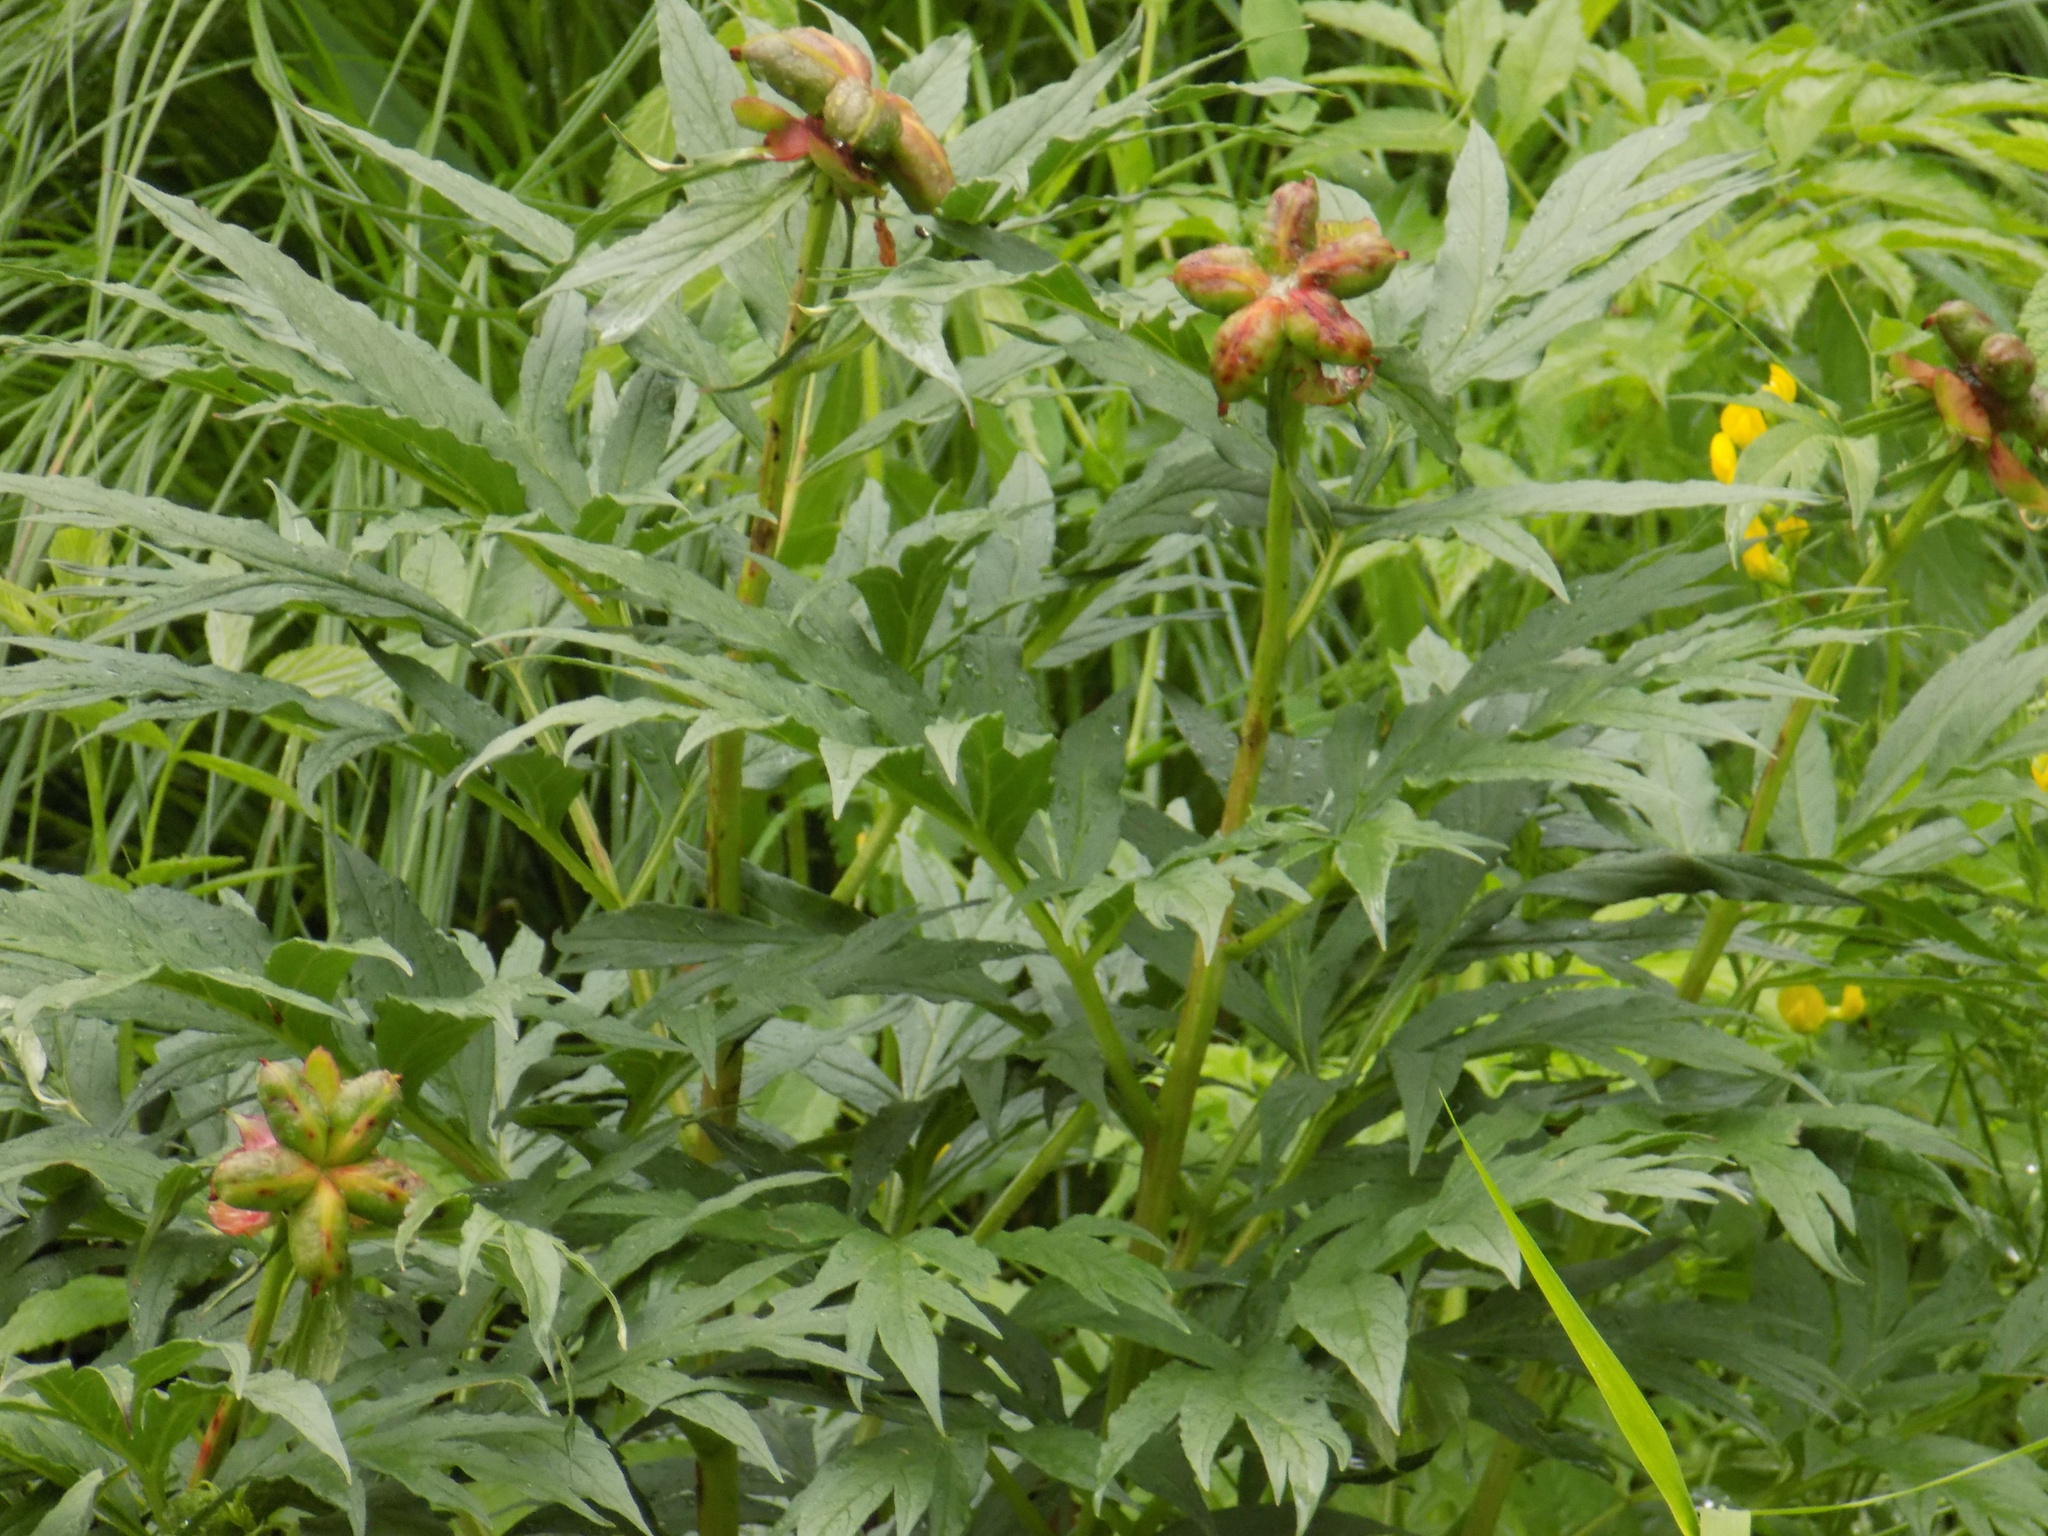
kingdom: Plantae
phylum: Tracheophyta
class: Magnoliopsida
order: Saxifragales
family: Paeoniaceae
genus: Paeonia
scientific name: Paeonia anomala
